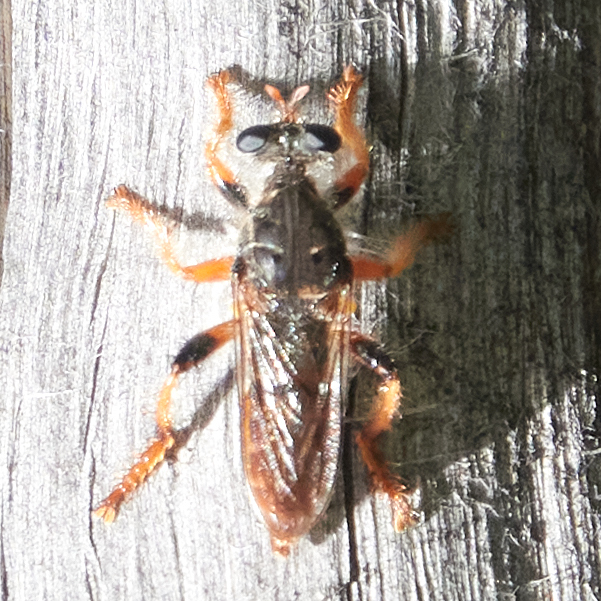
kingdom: Animalia
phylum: Arthropoda
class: Insecta
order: Diptera
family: Asilidae
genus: Andrenosoma
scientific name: Andrenosoma hesperium
